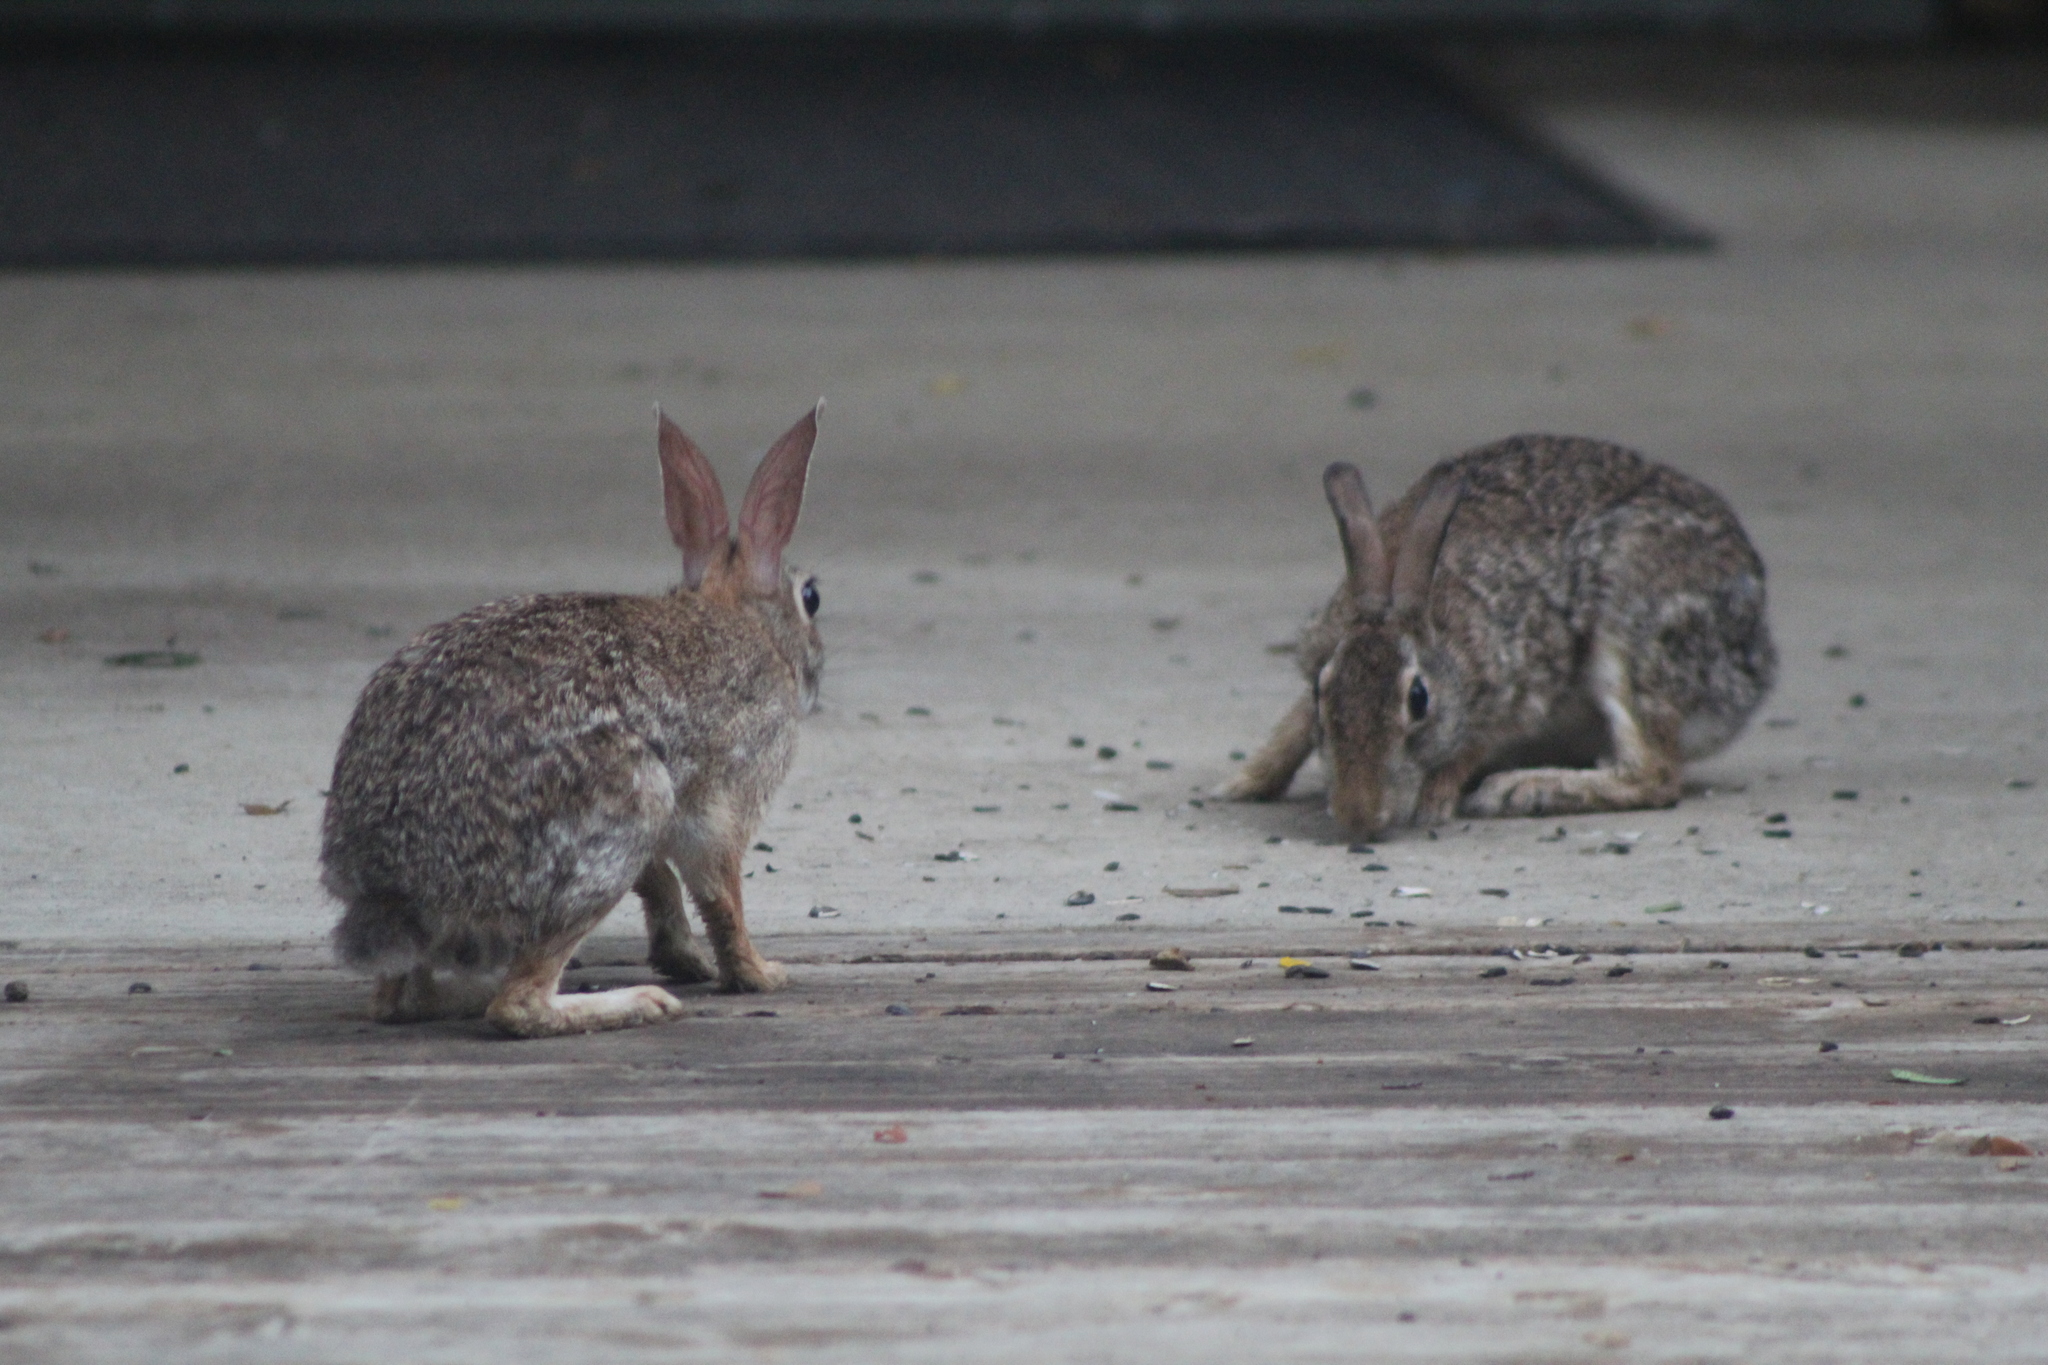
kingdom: Animalia
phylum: Chordata
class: Mammalia
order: Lagomorpha
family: Leporidae
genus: Sylvilagus
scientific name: Sylvilagus floridanus
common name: Eastern cottontail
